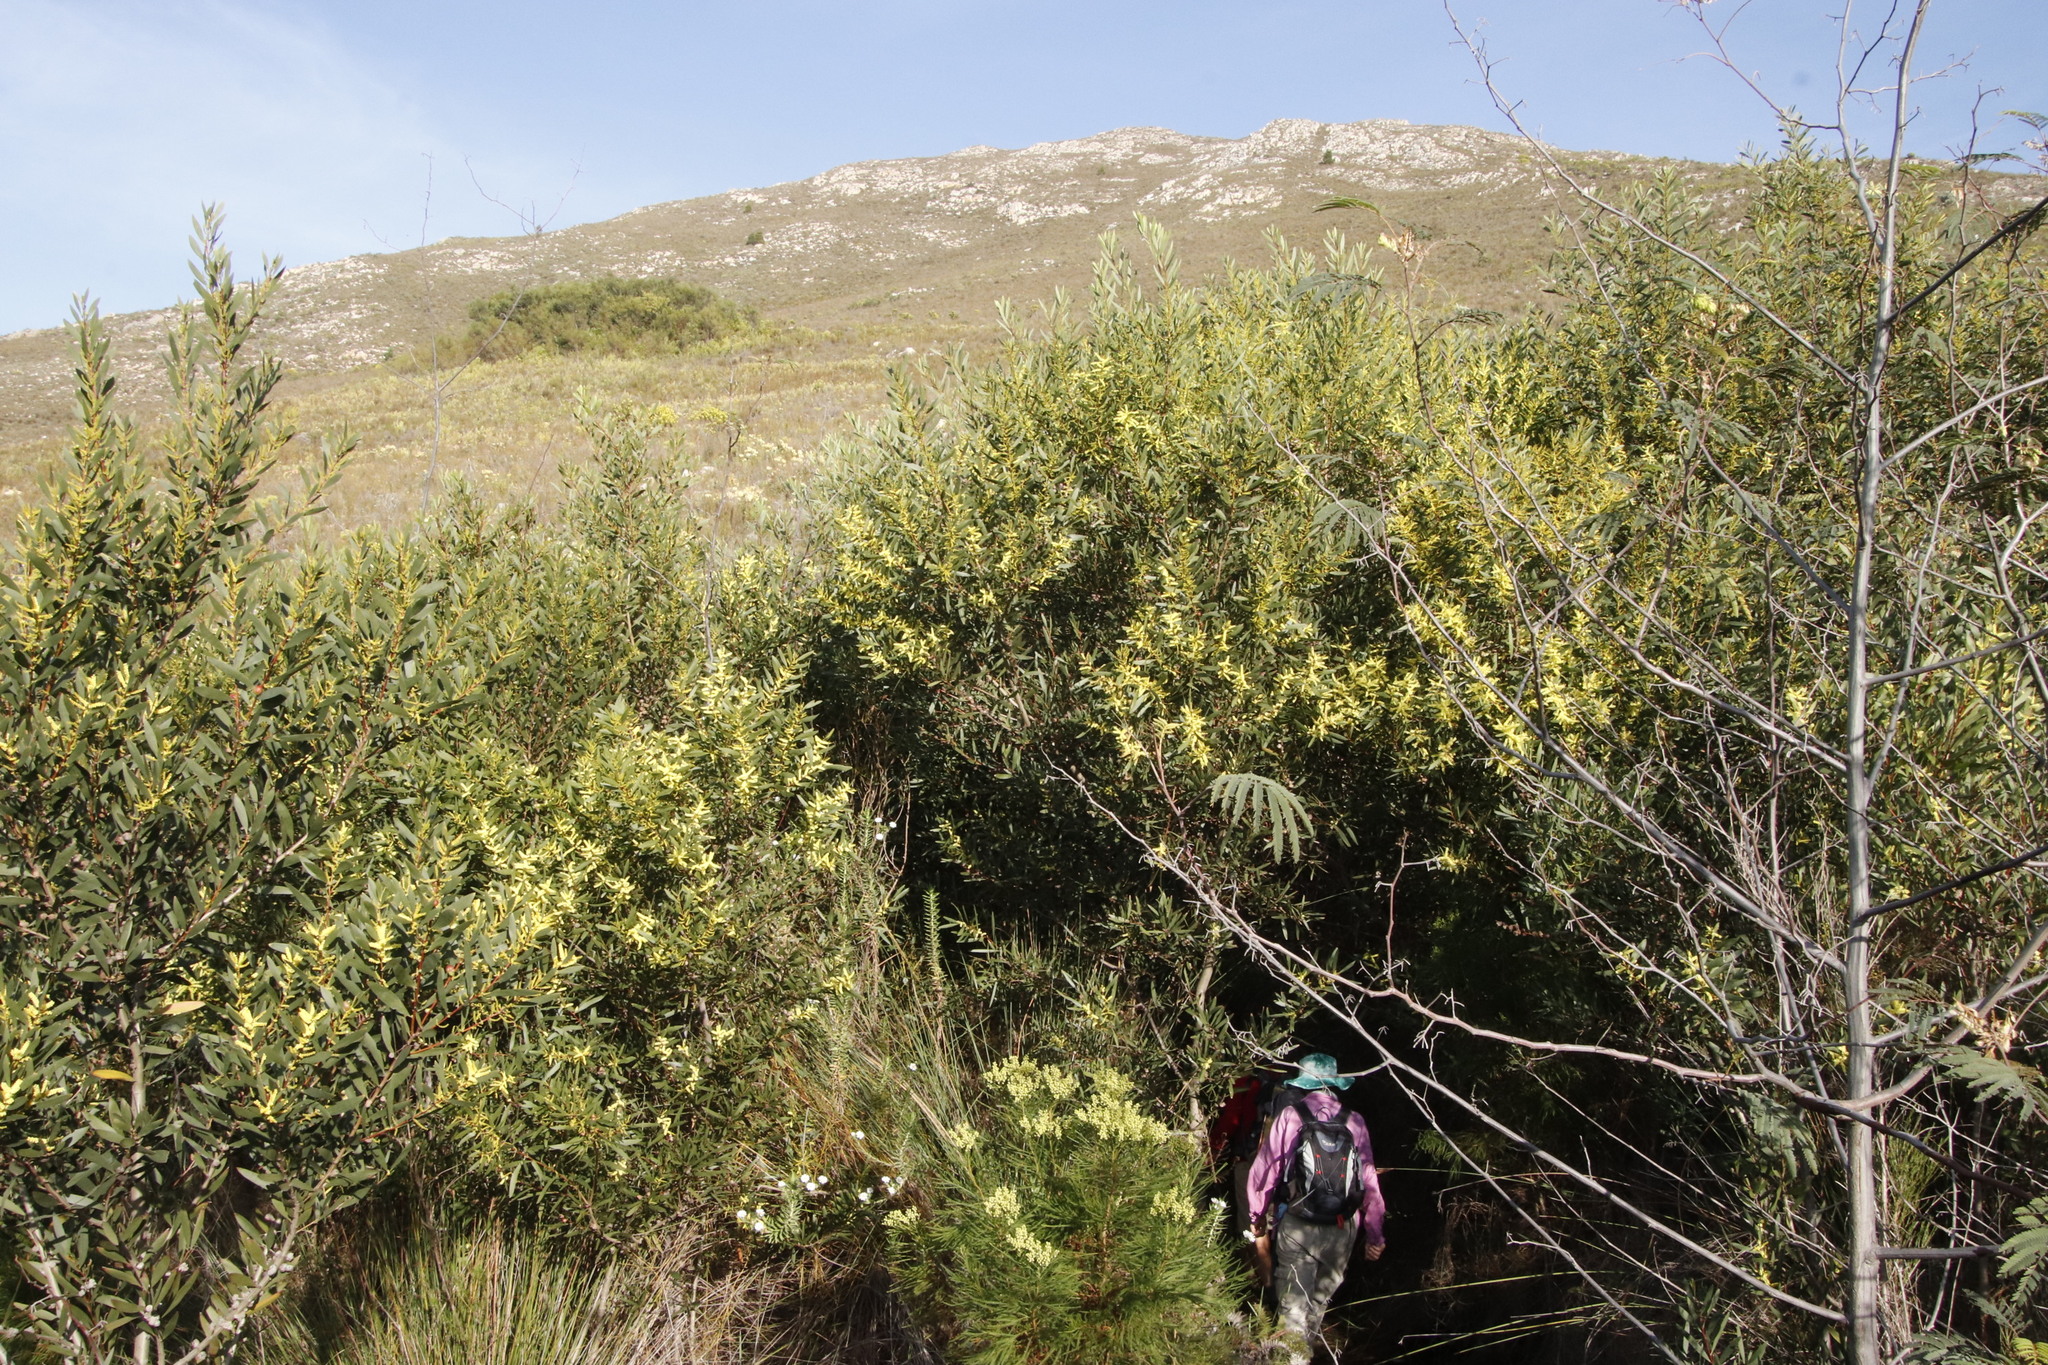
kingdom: Plantae
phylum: Tracheophyta
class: Magnoliopsida
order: Fabales
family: Fabaceae
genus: Acacia
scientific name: Acacia longifolia
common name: Sydney golden wattle
